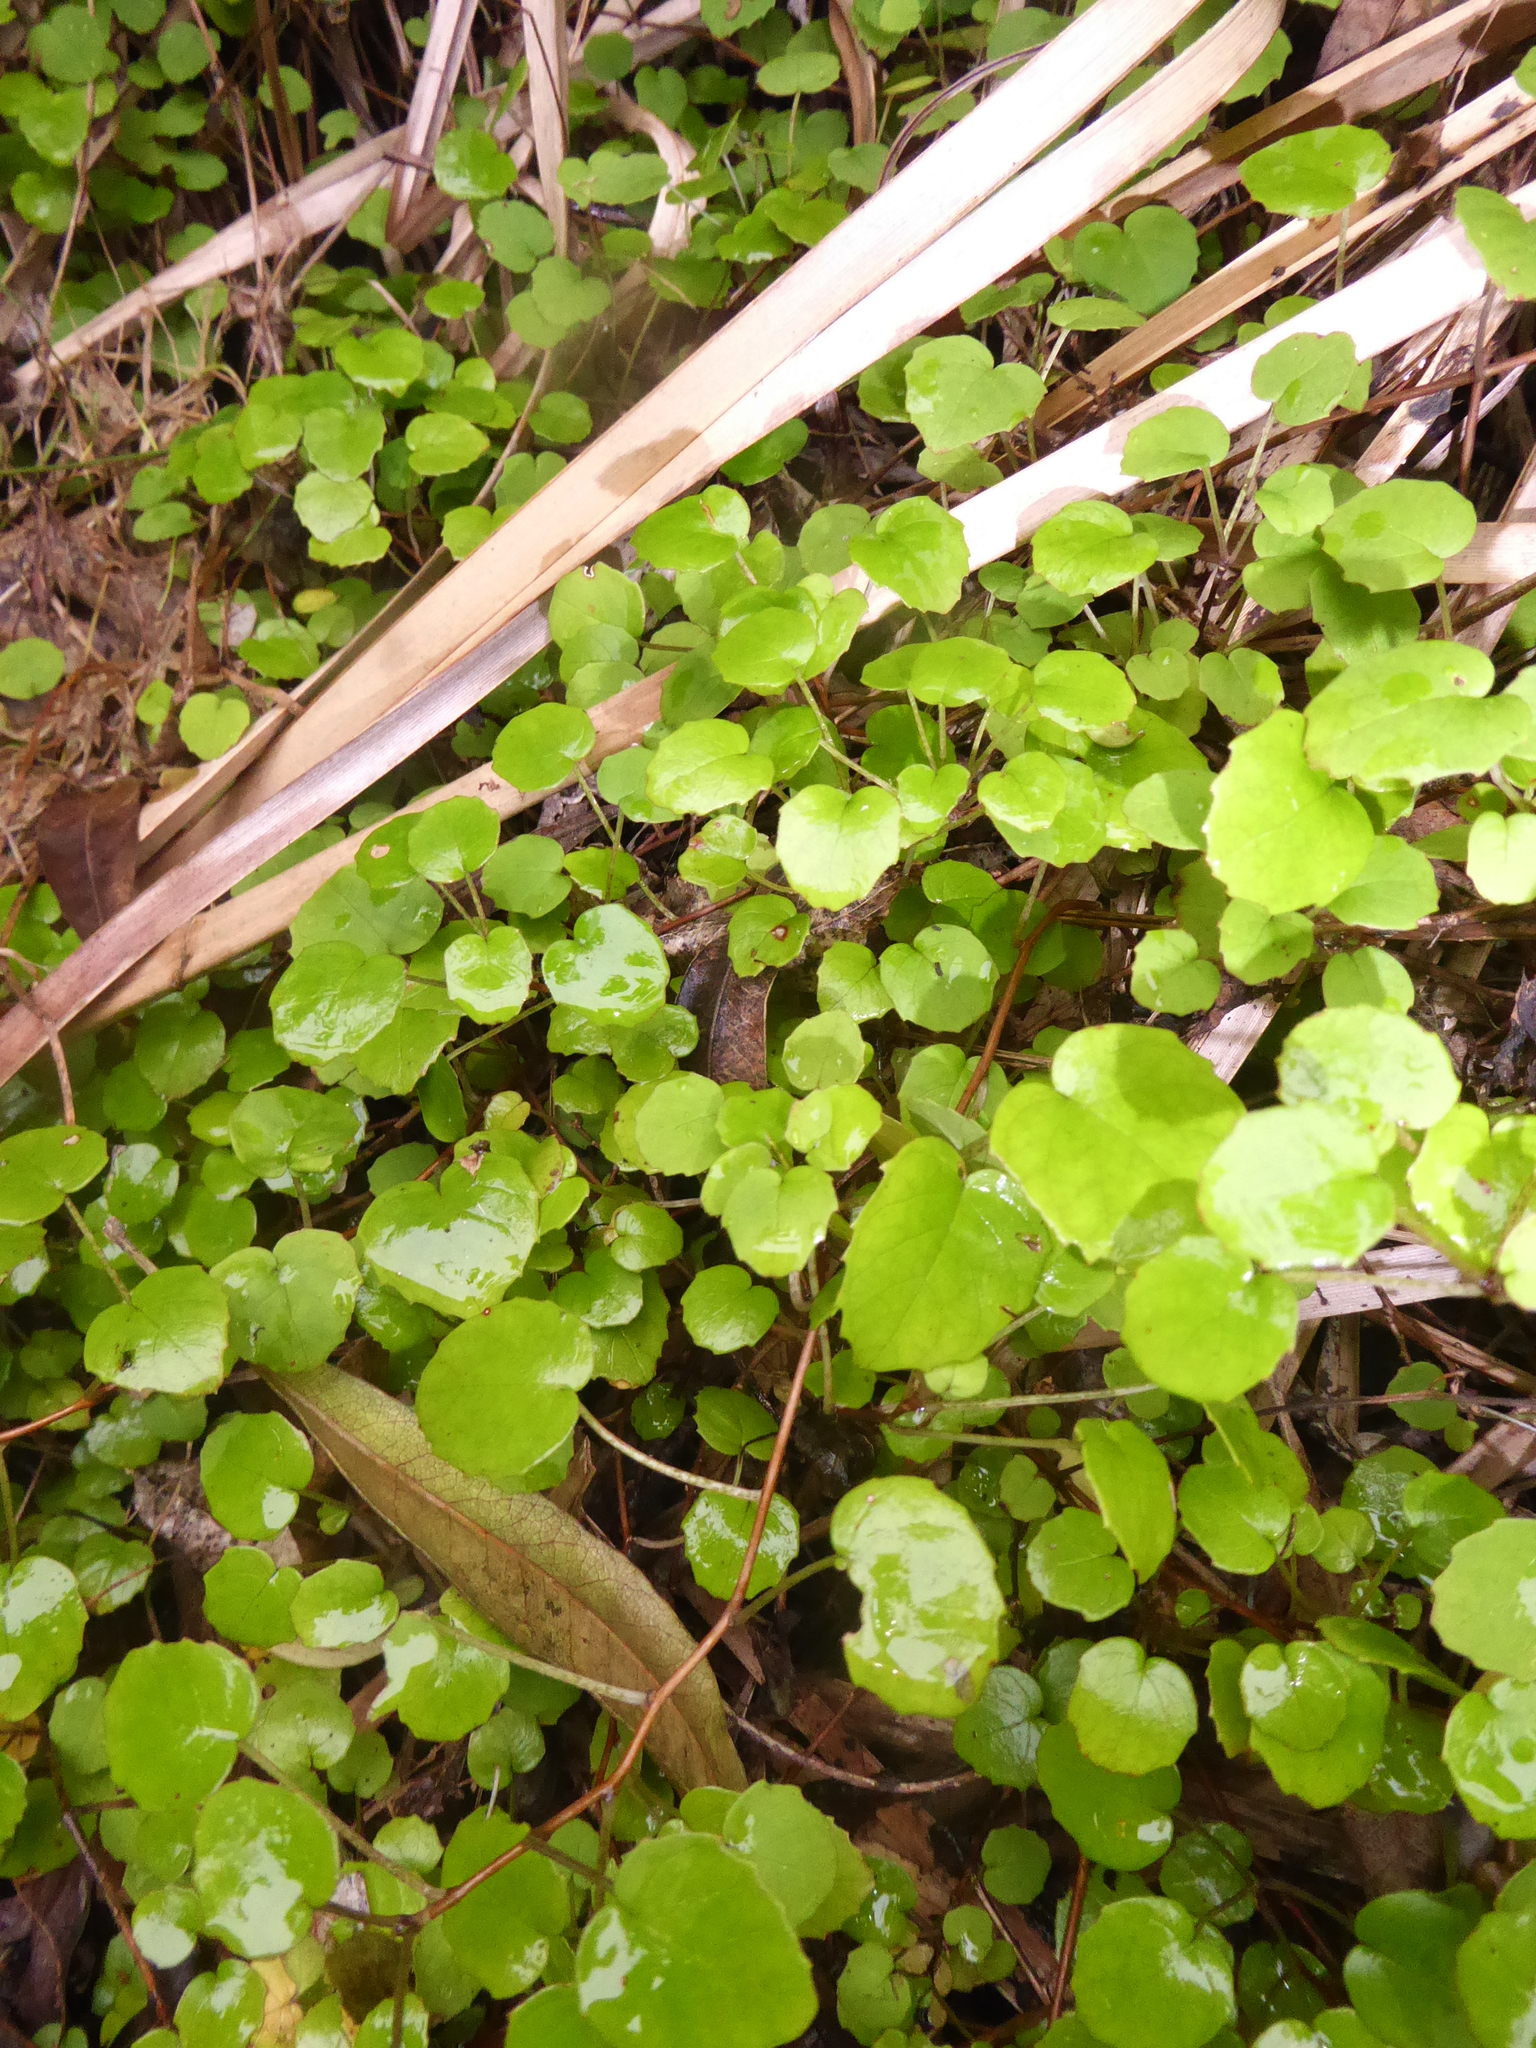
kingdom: Plantae
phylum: Tracheophyta
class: Magnoliopsida
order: Myrtales
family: Onagraceae
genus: Fuchsia
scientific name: Fuchsia procumbens
